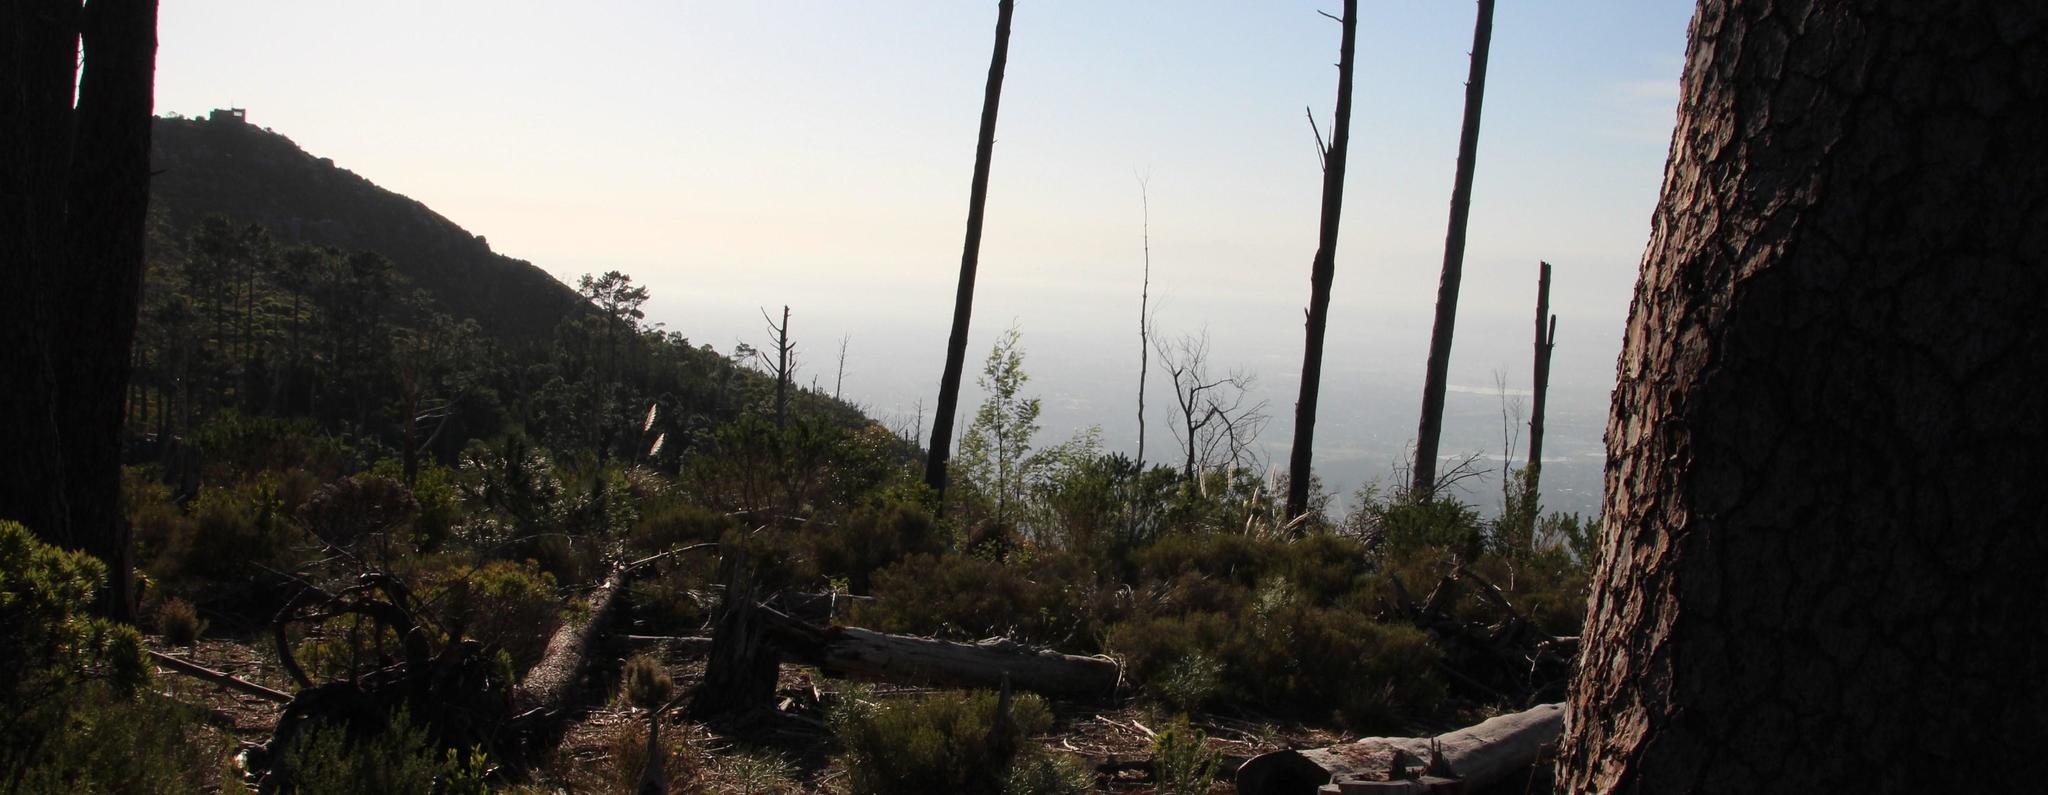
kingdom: Plantae
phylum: Tracheophyta
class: Liliopsida
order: Poales
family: Poaceae
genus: Cortaderia
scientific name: Cortaderia selloana
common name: Uruguayan pampas grass
